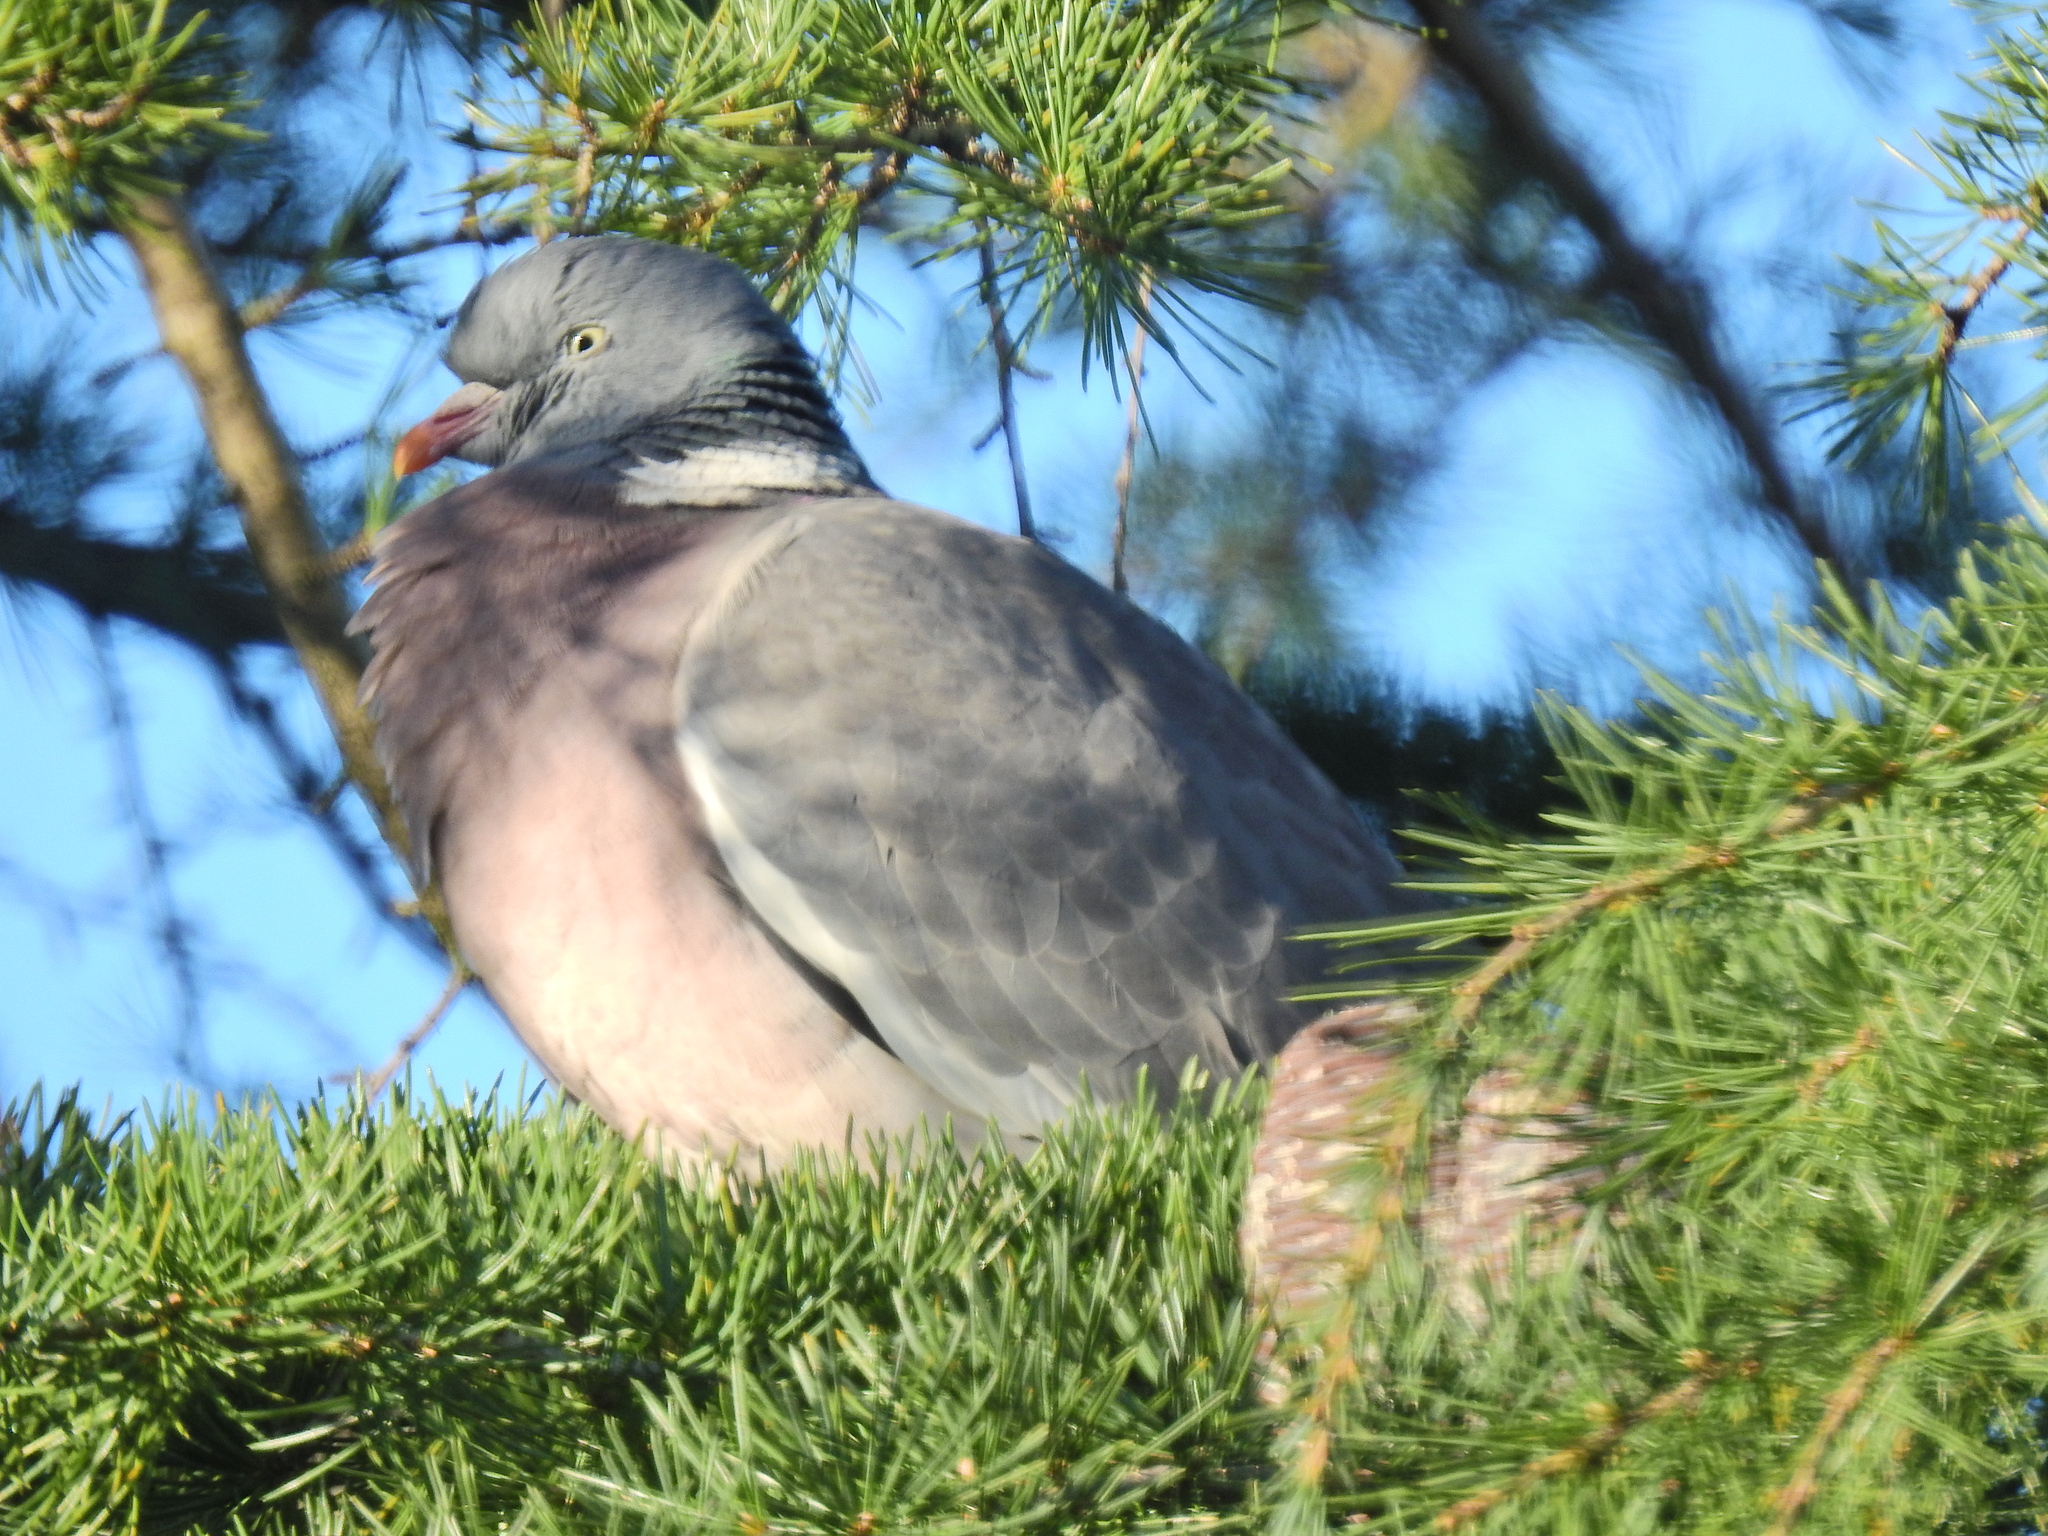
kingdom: Animalia
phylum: Chordata
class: Aves
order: Columbiformes
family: Columbidae
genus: Columba
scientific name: Columba palumbus
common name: Common wood pigeon
